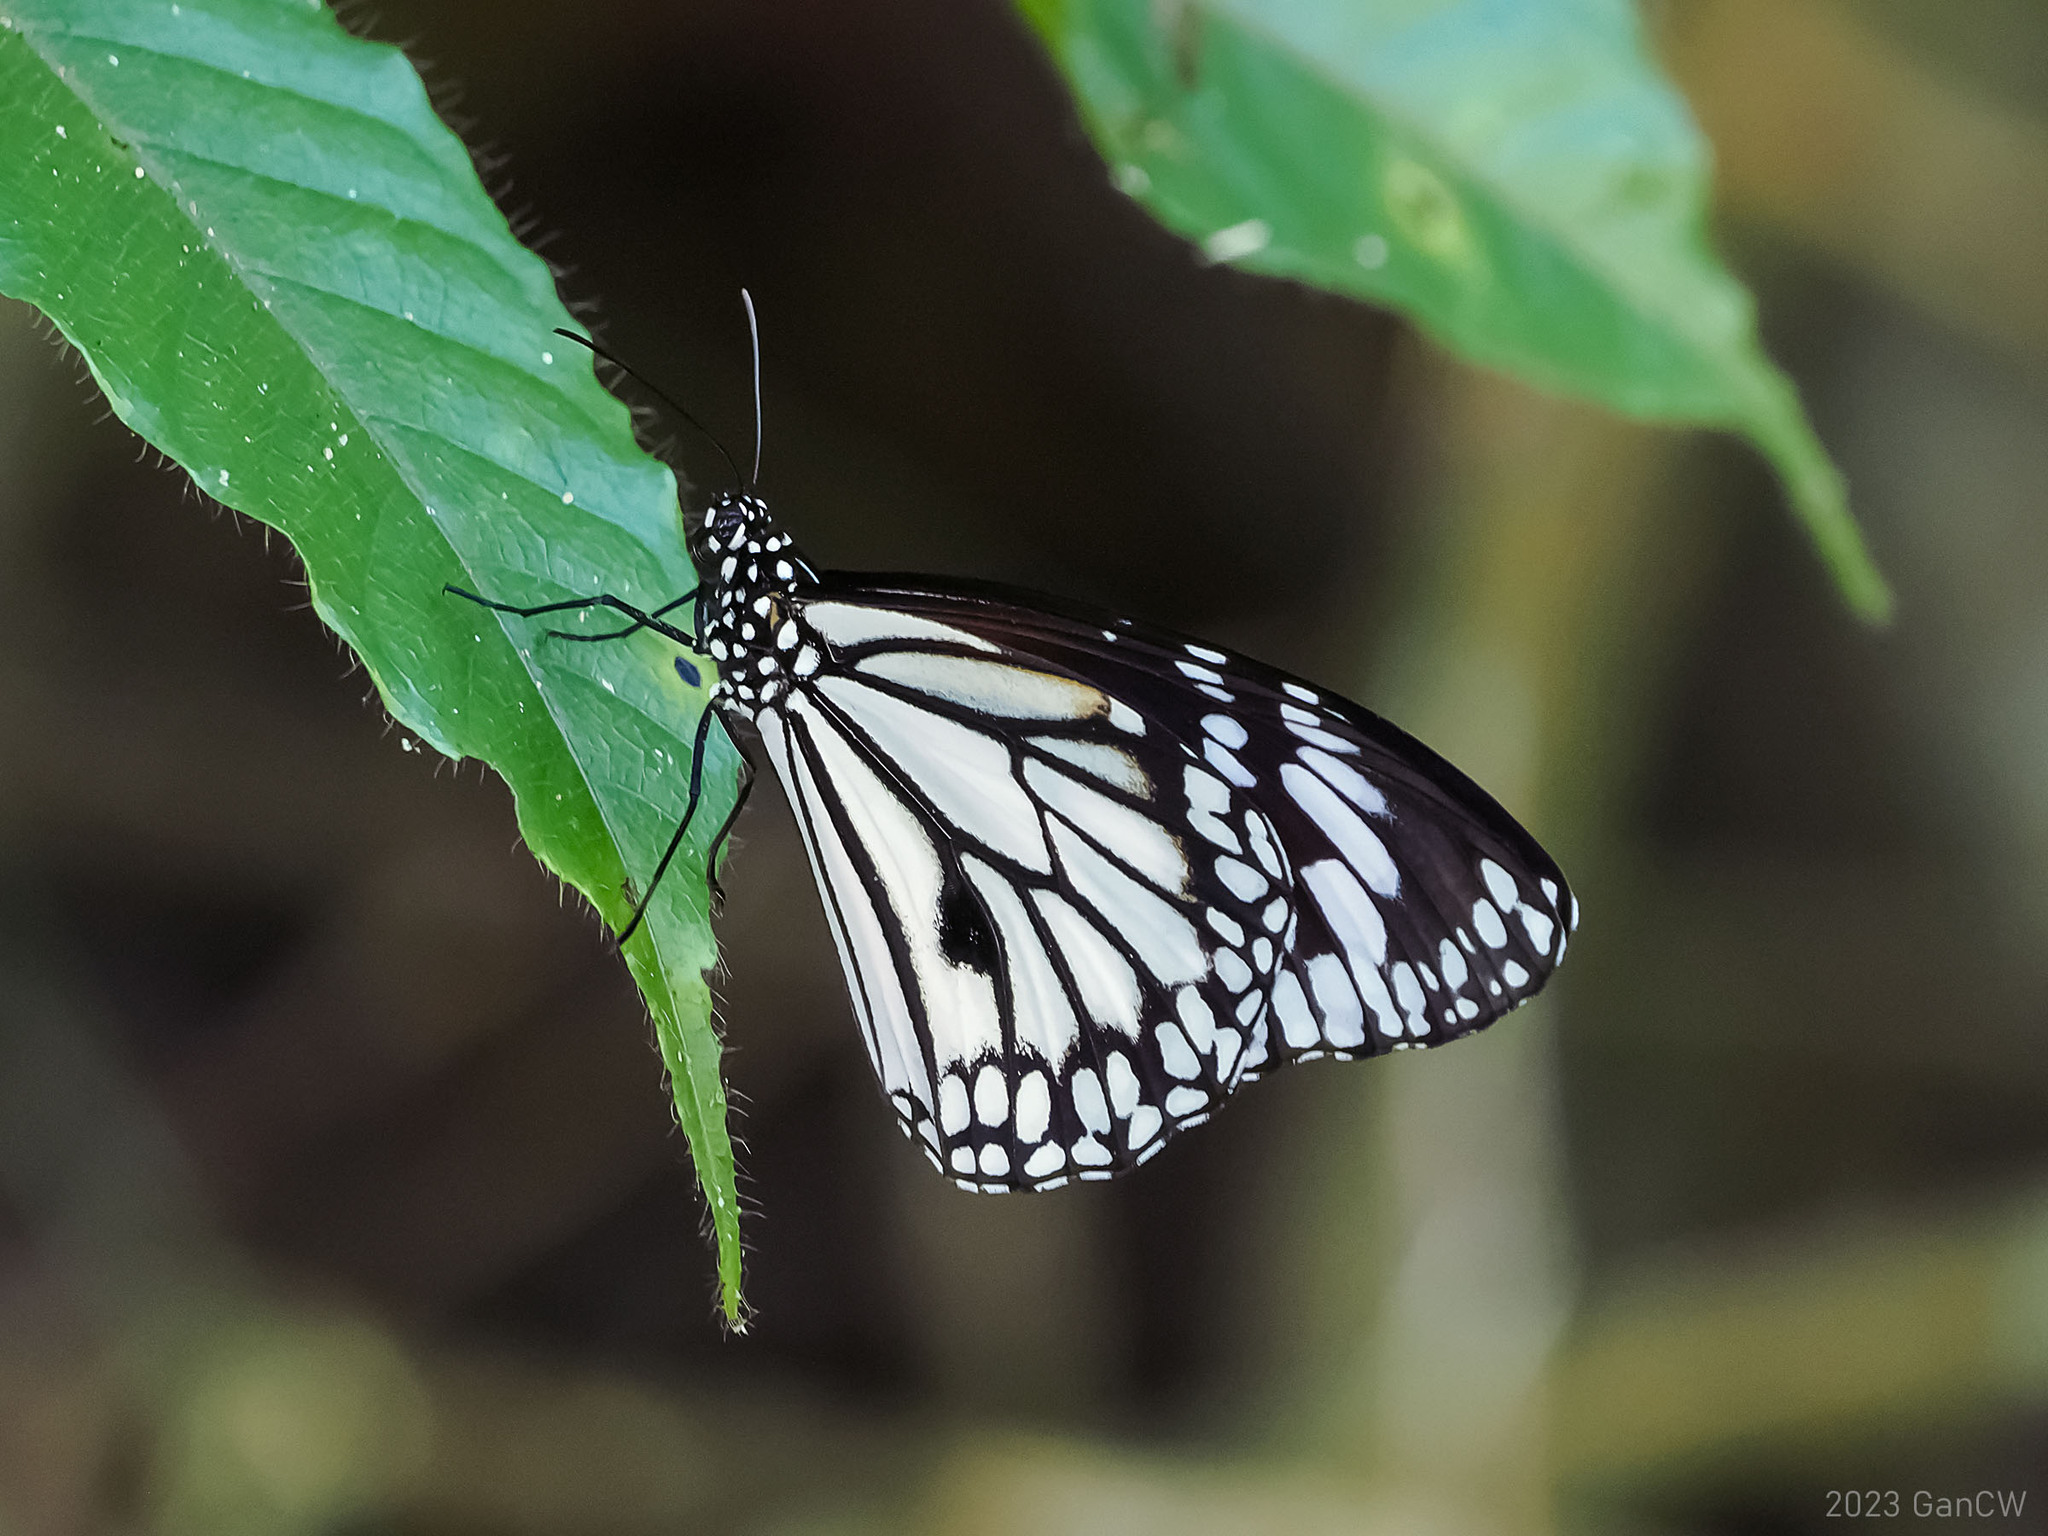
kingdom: Animalia
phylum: Arthropoda
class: Insecta
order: Lepidoptera
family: Nymphalidae
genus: Danaus
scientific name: Danaus melanippus
